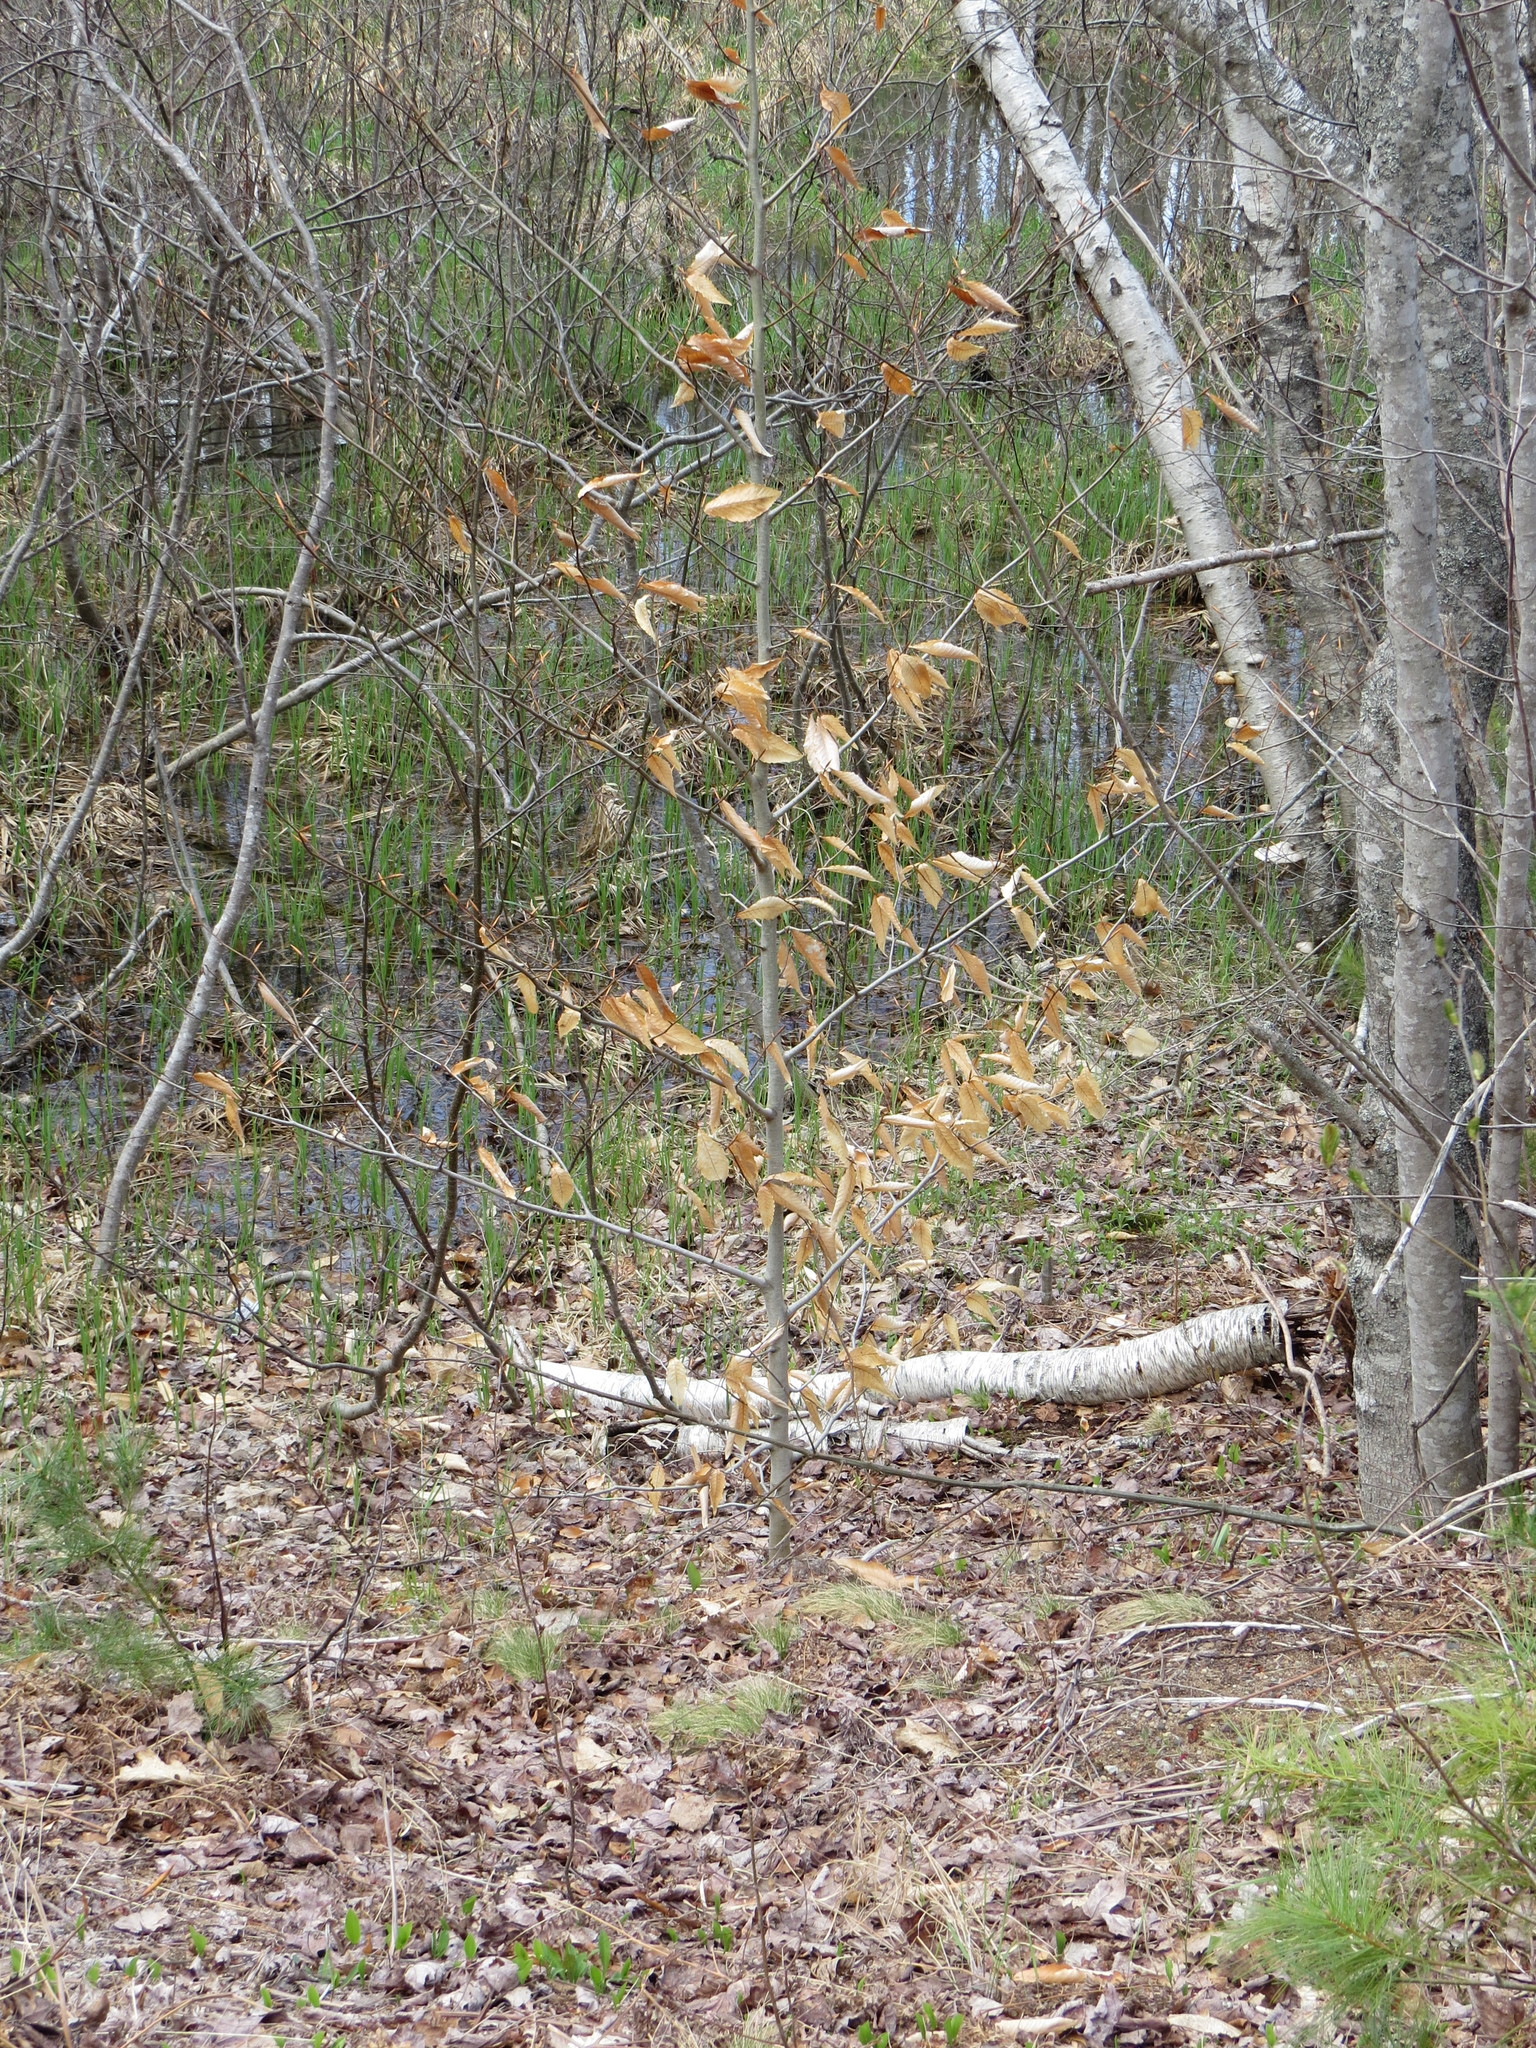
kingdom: Plantae
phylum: Tracheophyta
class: Magnoliopsida
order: Fagales
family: Fagaceae
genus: Fagus
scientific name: Fagus grandifolia
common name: American beech
